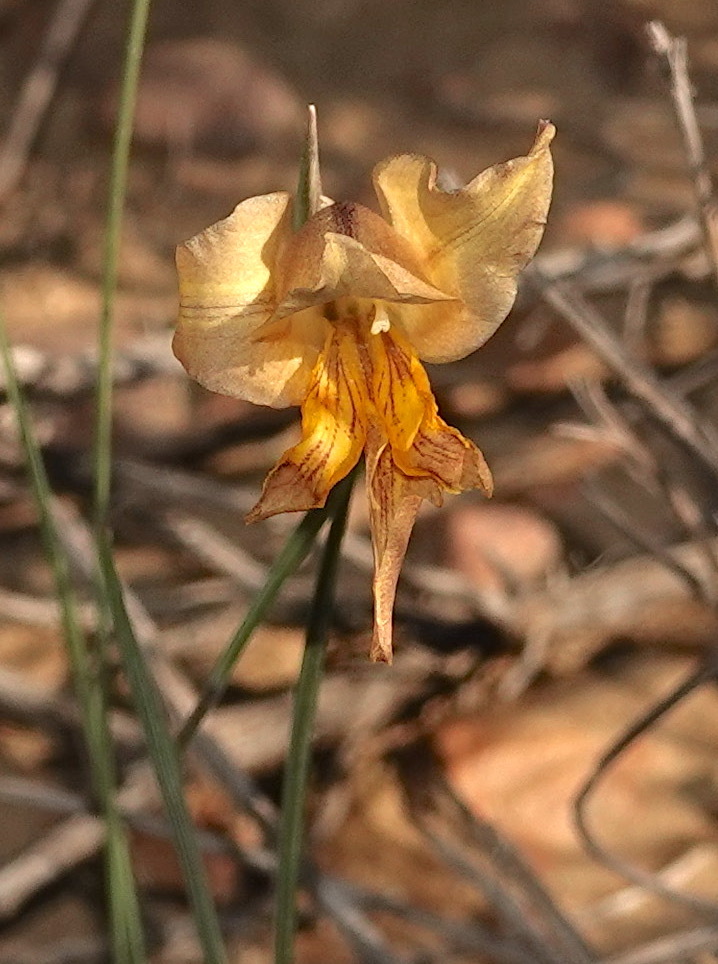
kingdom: Plantae
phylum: Tracheophyta
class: Liliopsida
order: Asparagales
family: Iridaceae
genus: Gladiolus
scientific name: Gladiolus carinatus
